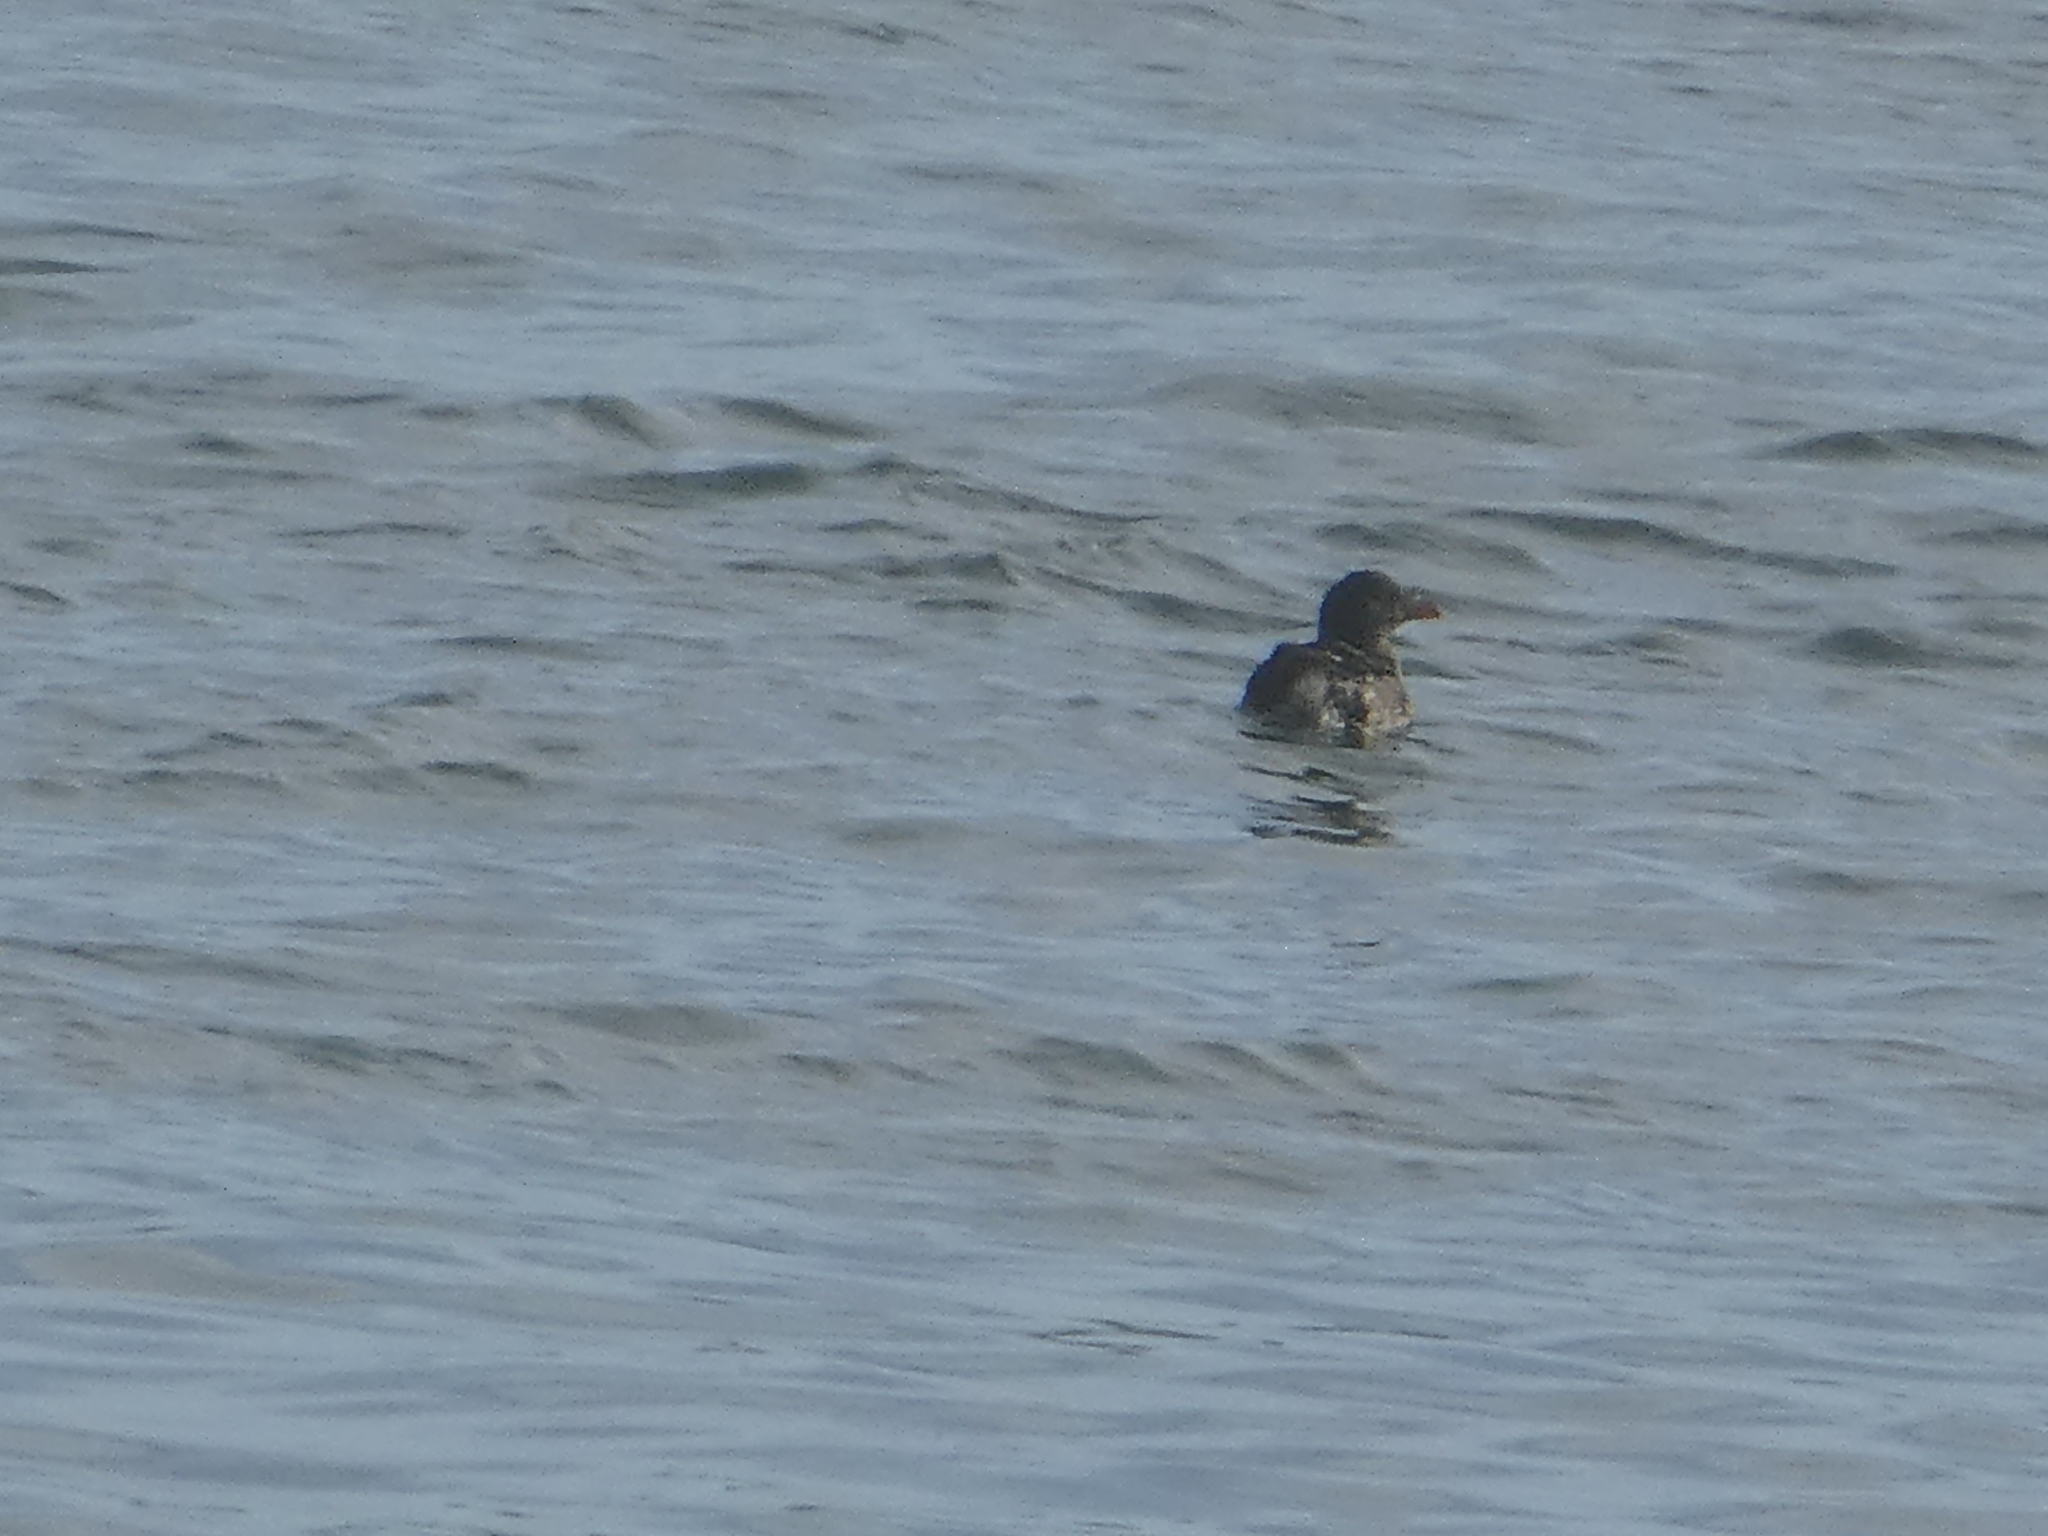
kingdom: Animalia
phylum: Chordata
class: Aves
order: Charadriiformes
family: Alcidae
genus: Cerorhinca
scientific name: Cerorhinca monocerata
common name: Rhinoceros auklet
